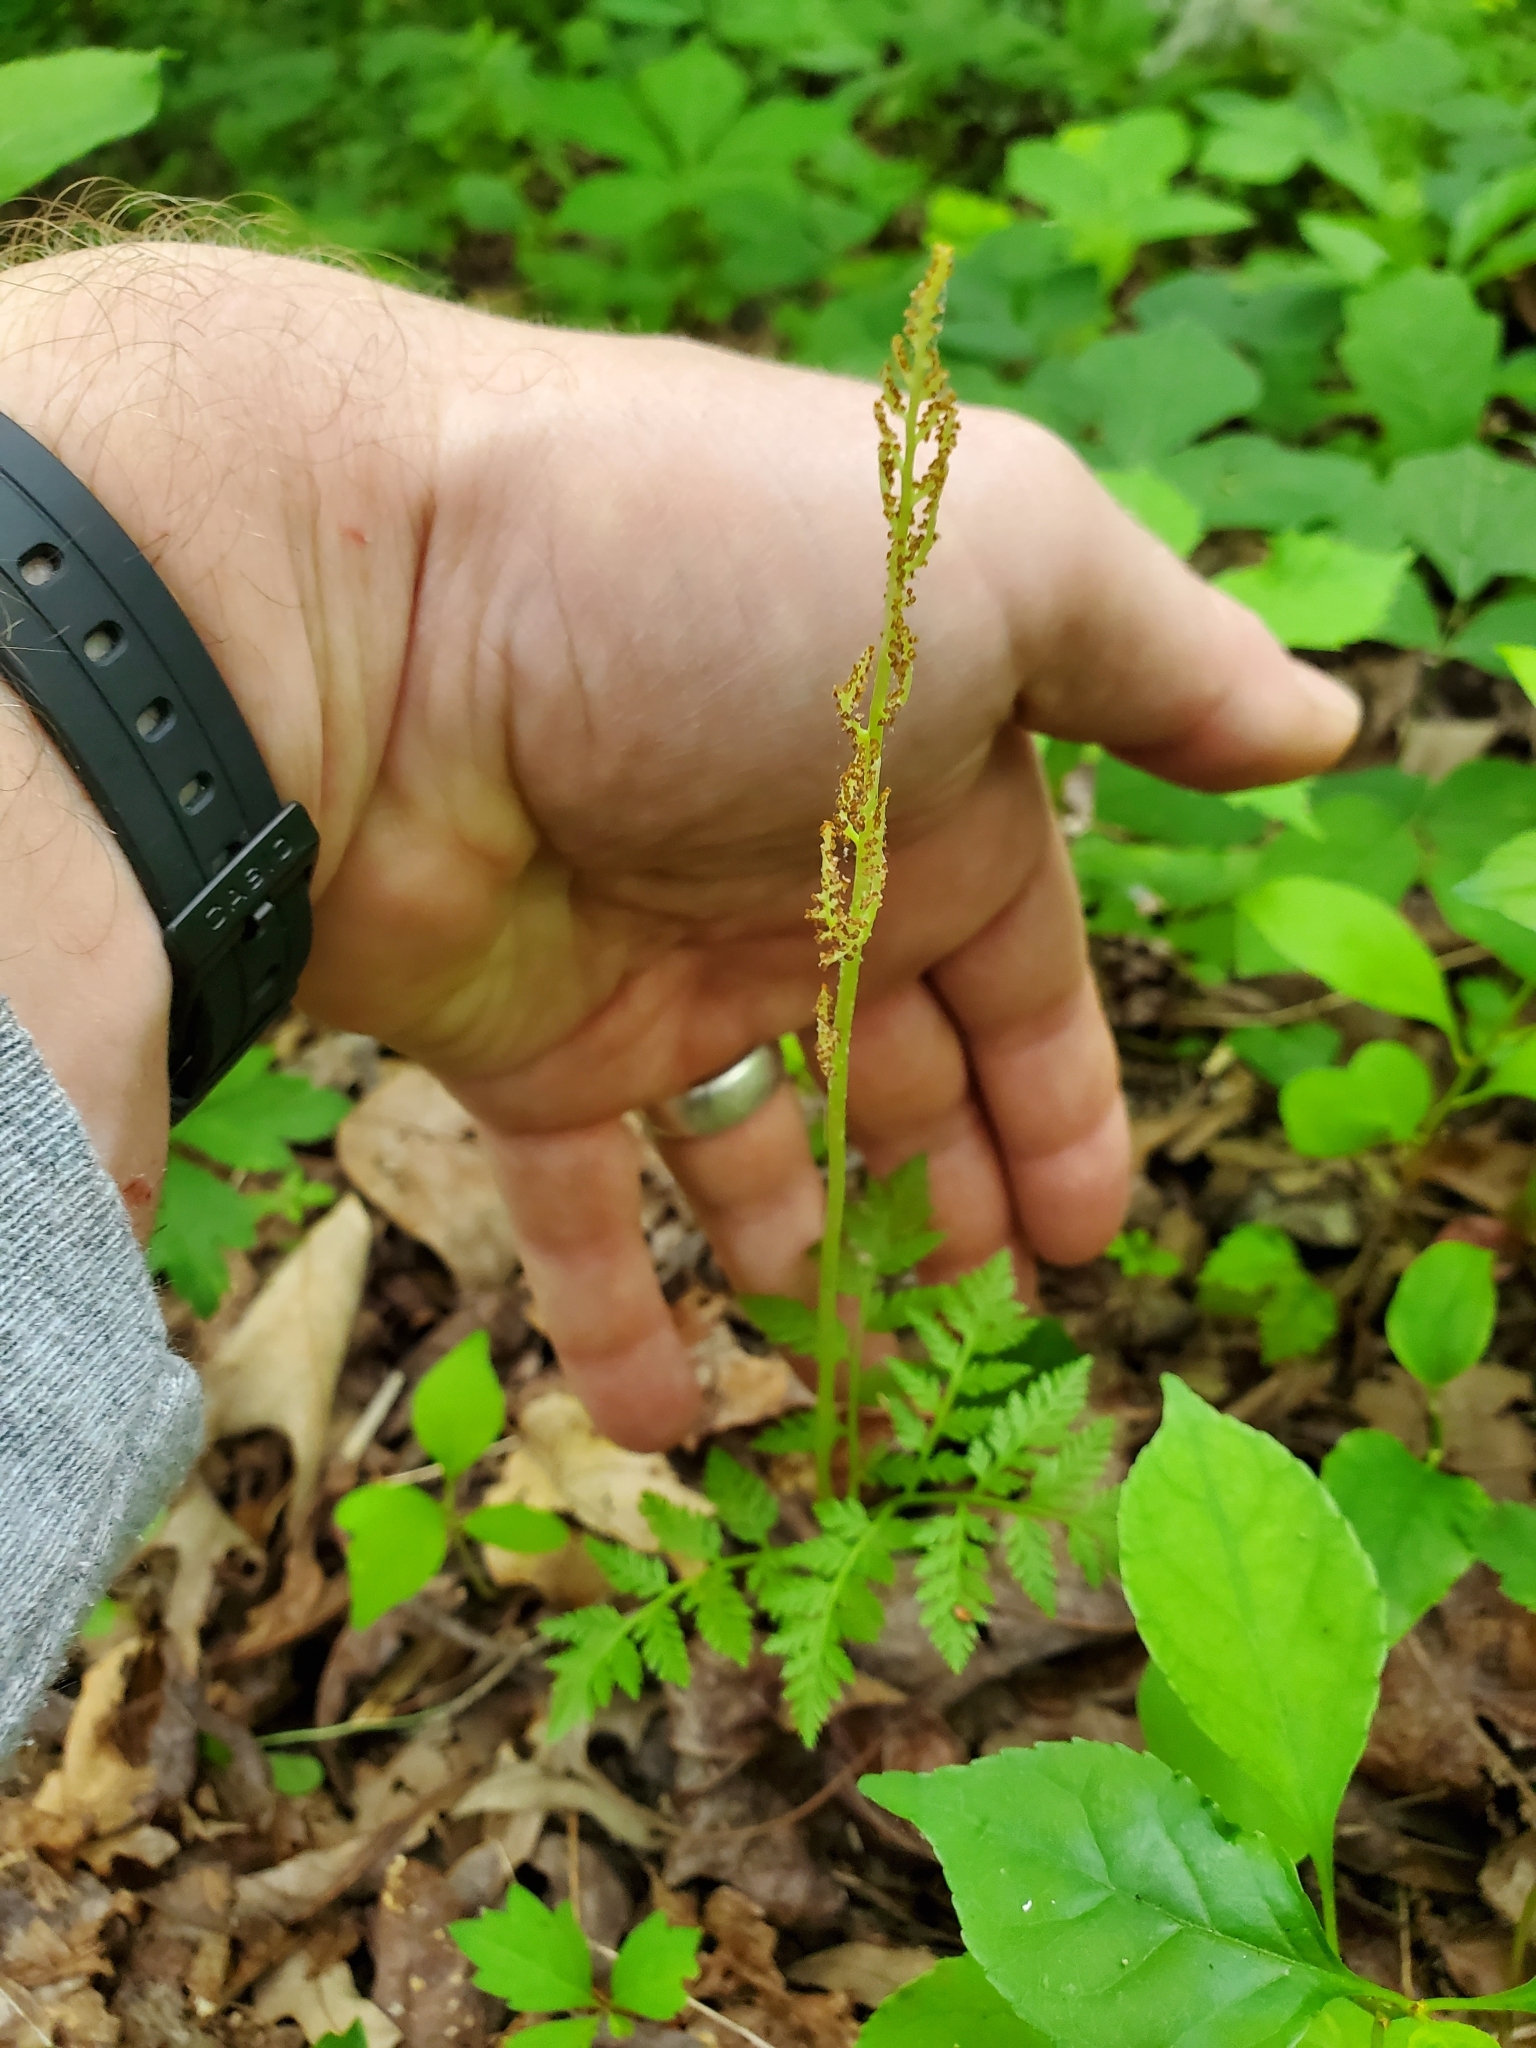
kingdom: Plantae
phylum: Tracheophyta
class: Polypodiopsida
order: Ophioglossales
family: Ophioglossaceae
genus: Botrypus
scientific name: Botrypus virginianus
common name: Common grapefern
